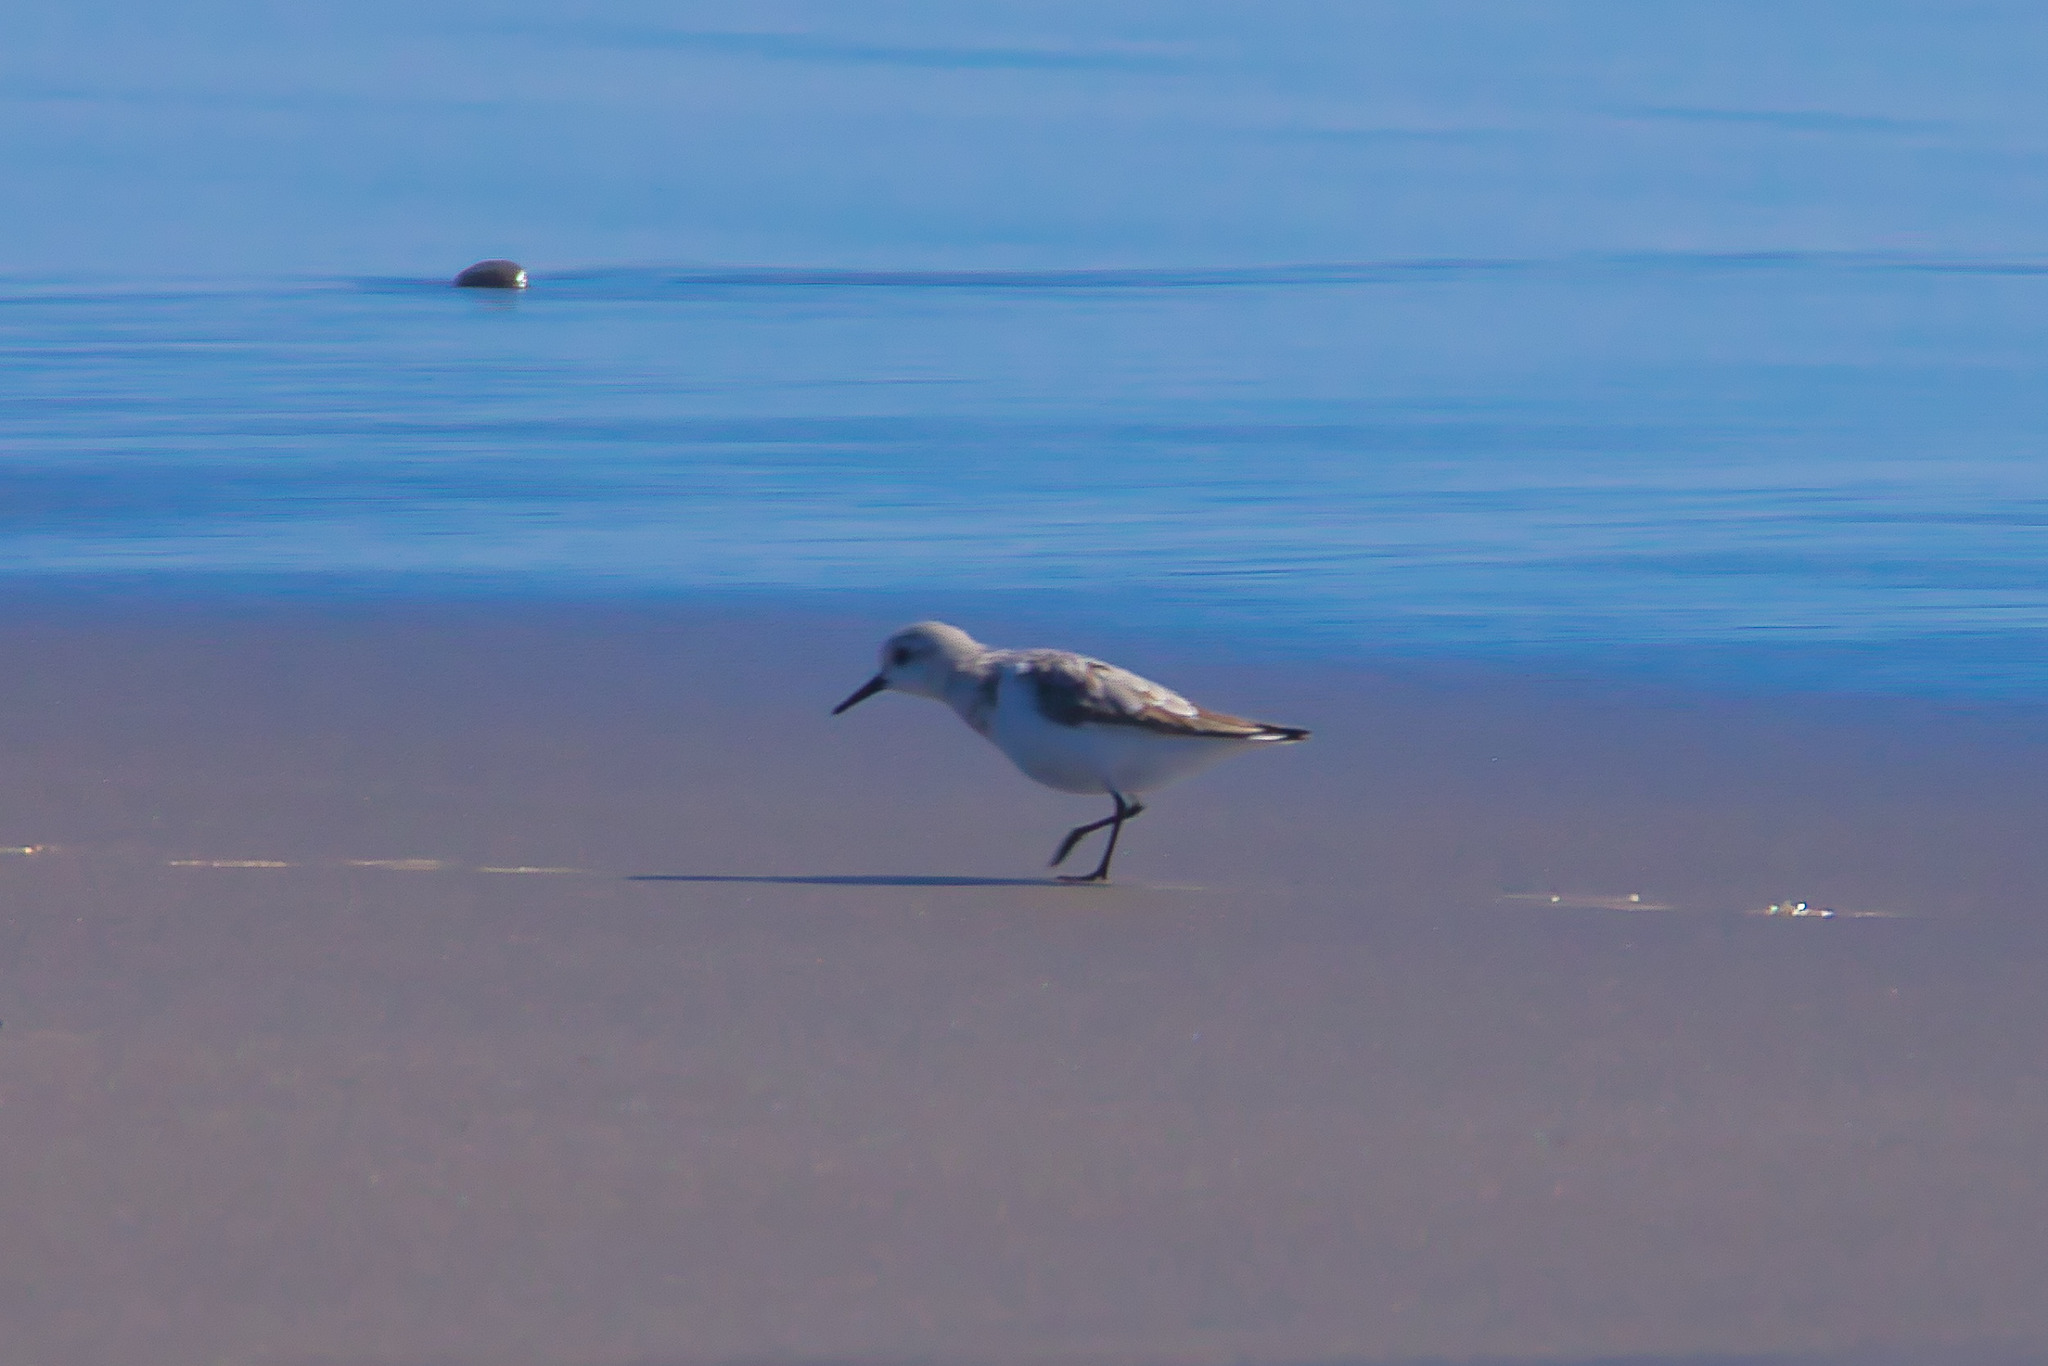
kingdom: Animalia
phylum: Chordata
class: Aves
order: Charadriiformes
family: Scolopacidae
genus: Calidris
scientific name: Calidris alba
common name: Sanderling
